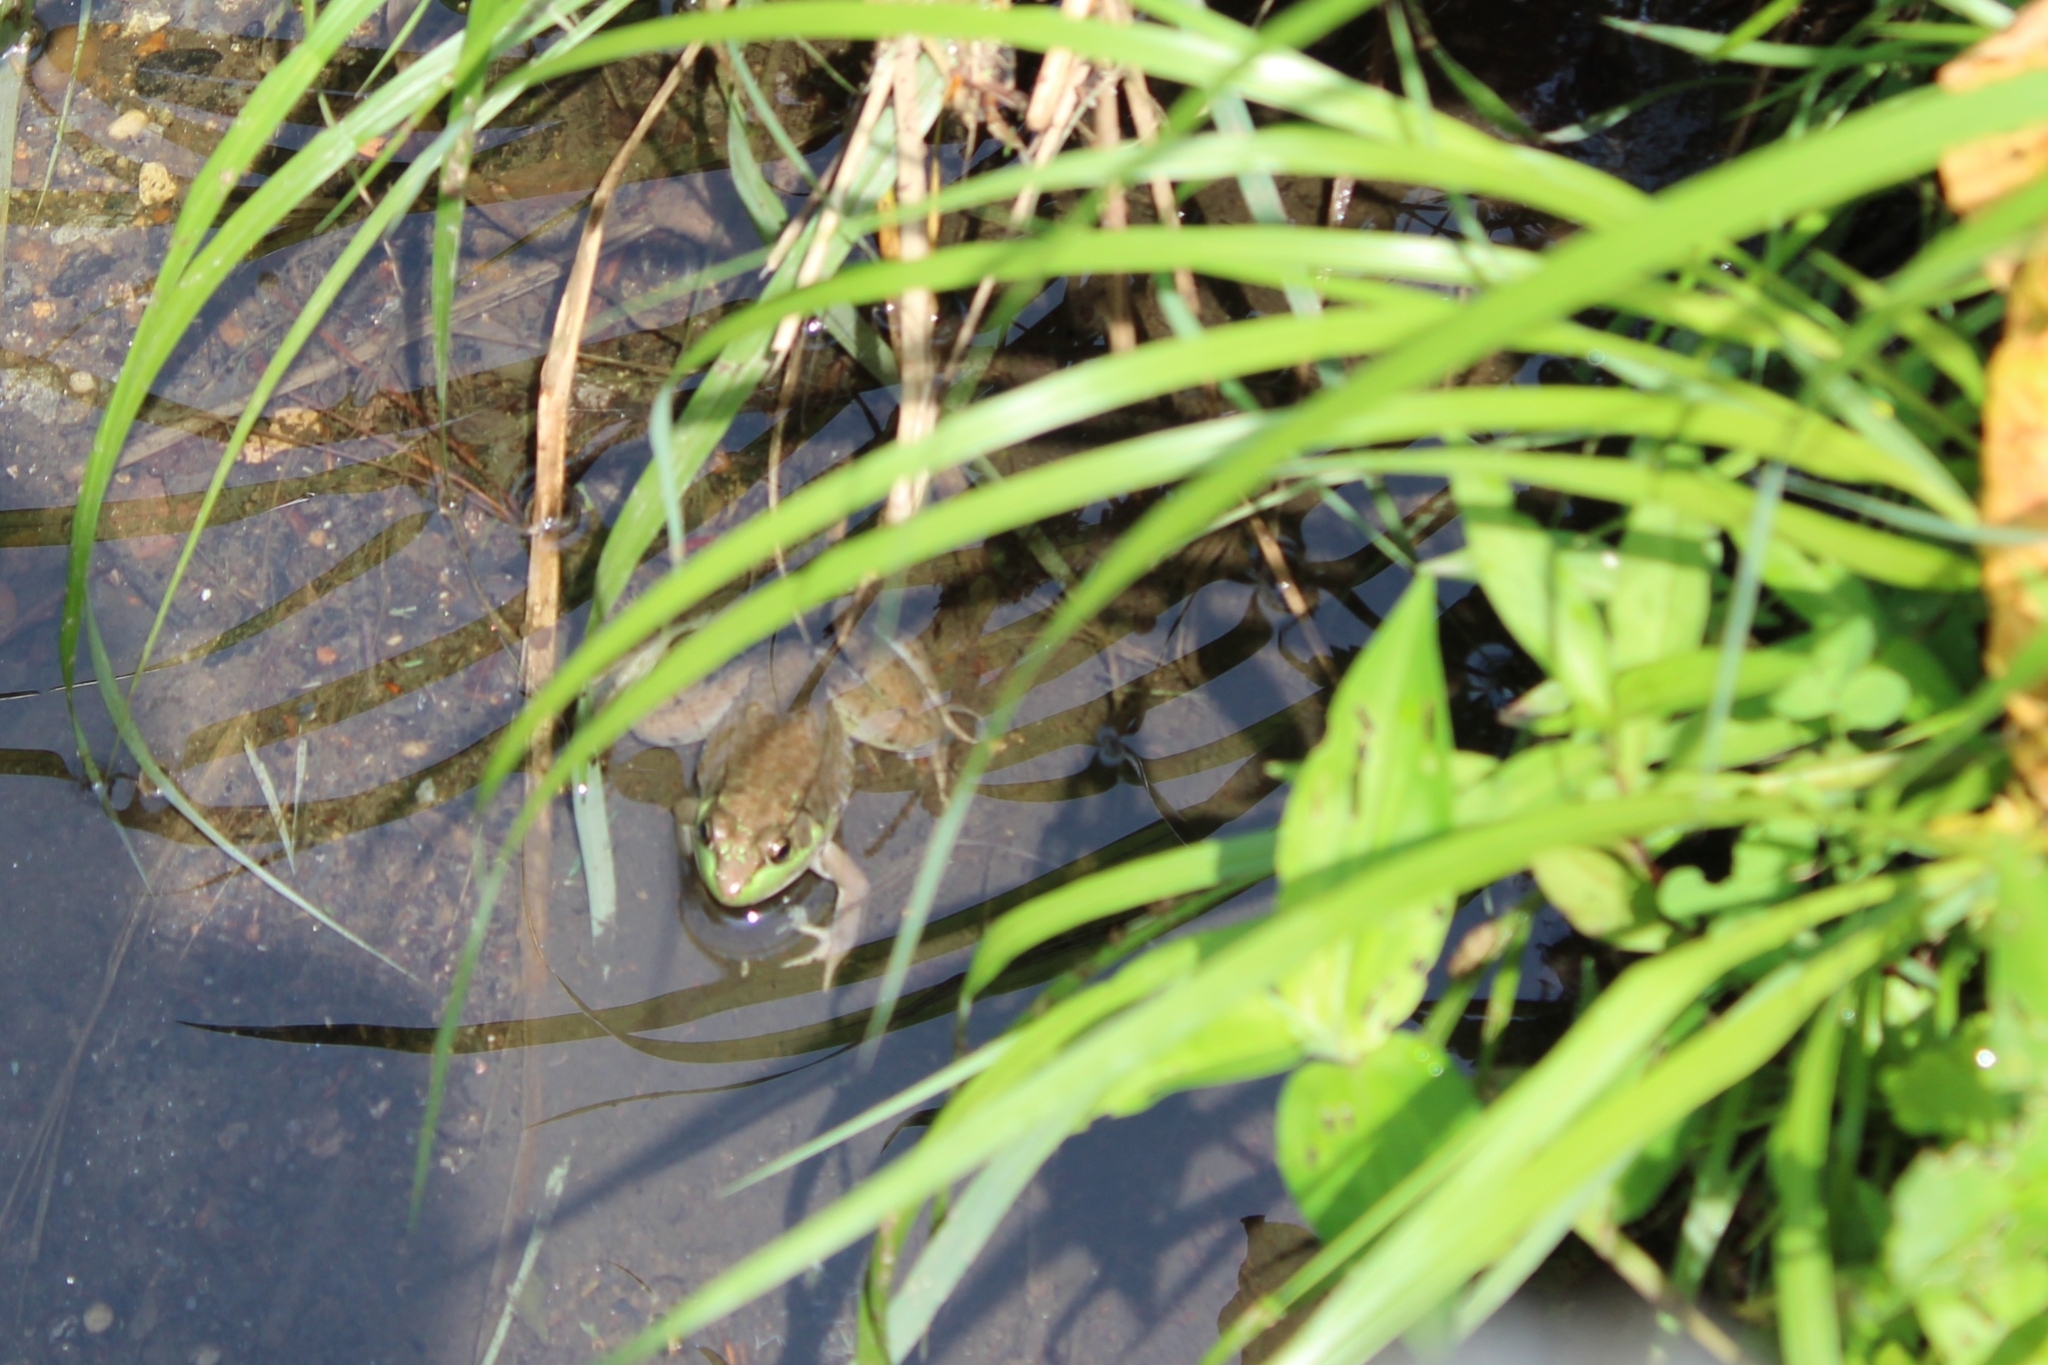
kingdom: Animalia
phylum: Chordata
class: Amphibia
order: Anura
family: Ranidae
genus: Lithobates
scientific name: Lithobates clamitans
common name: Green frog
